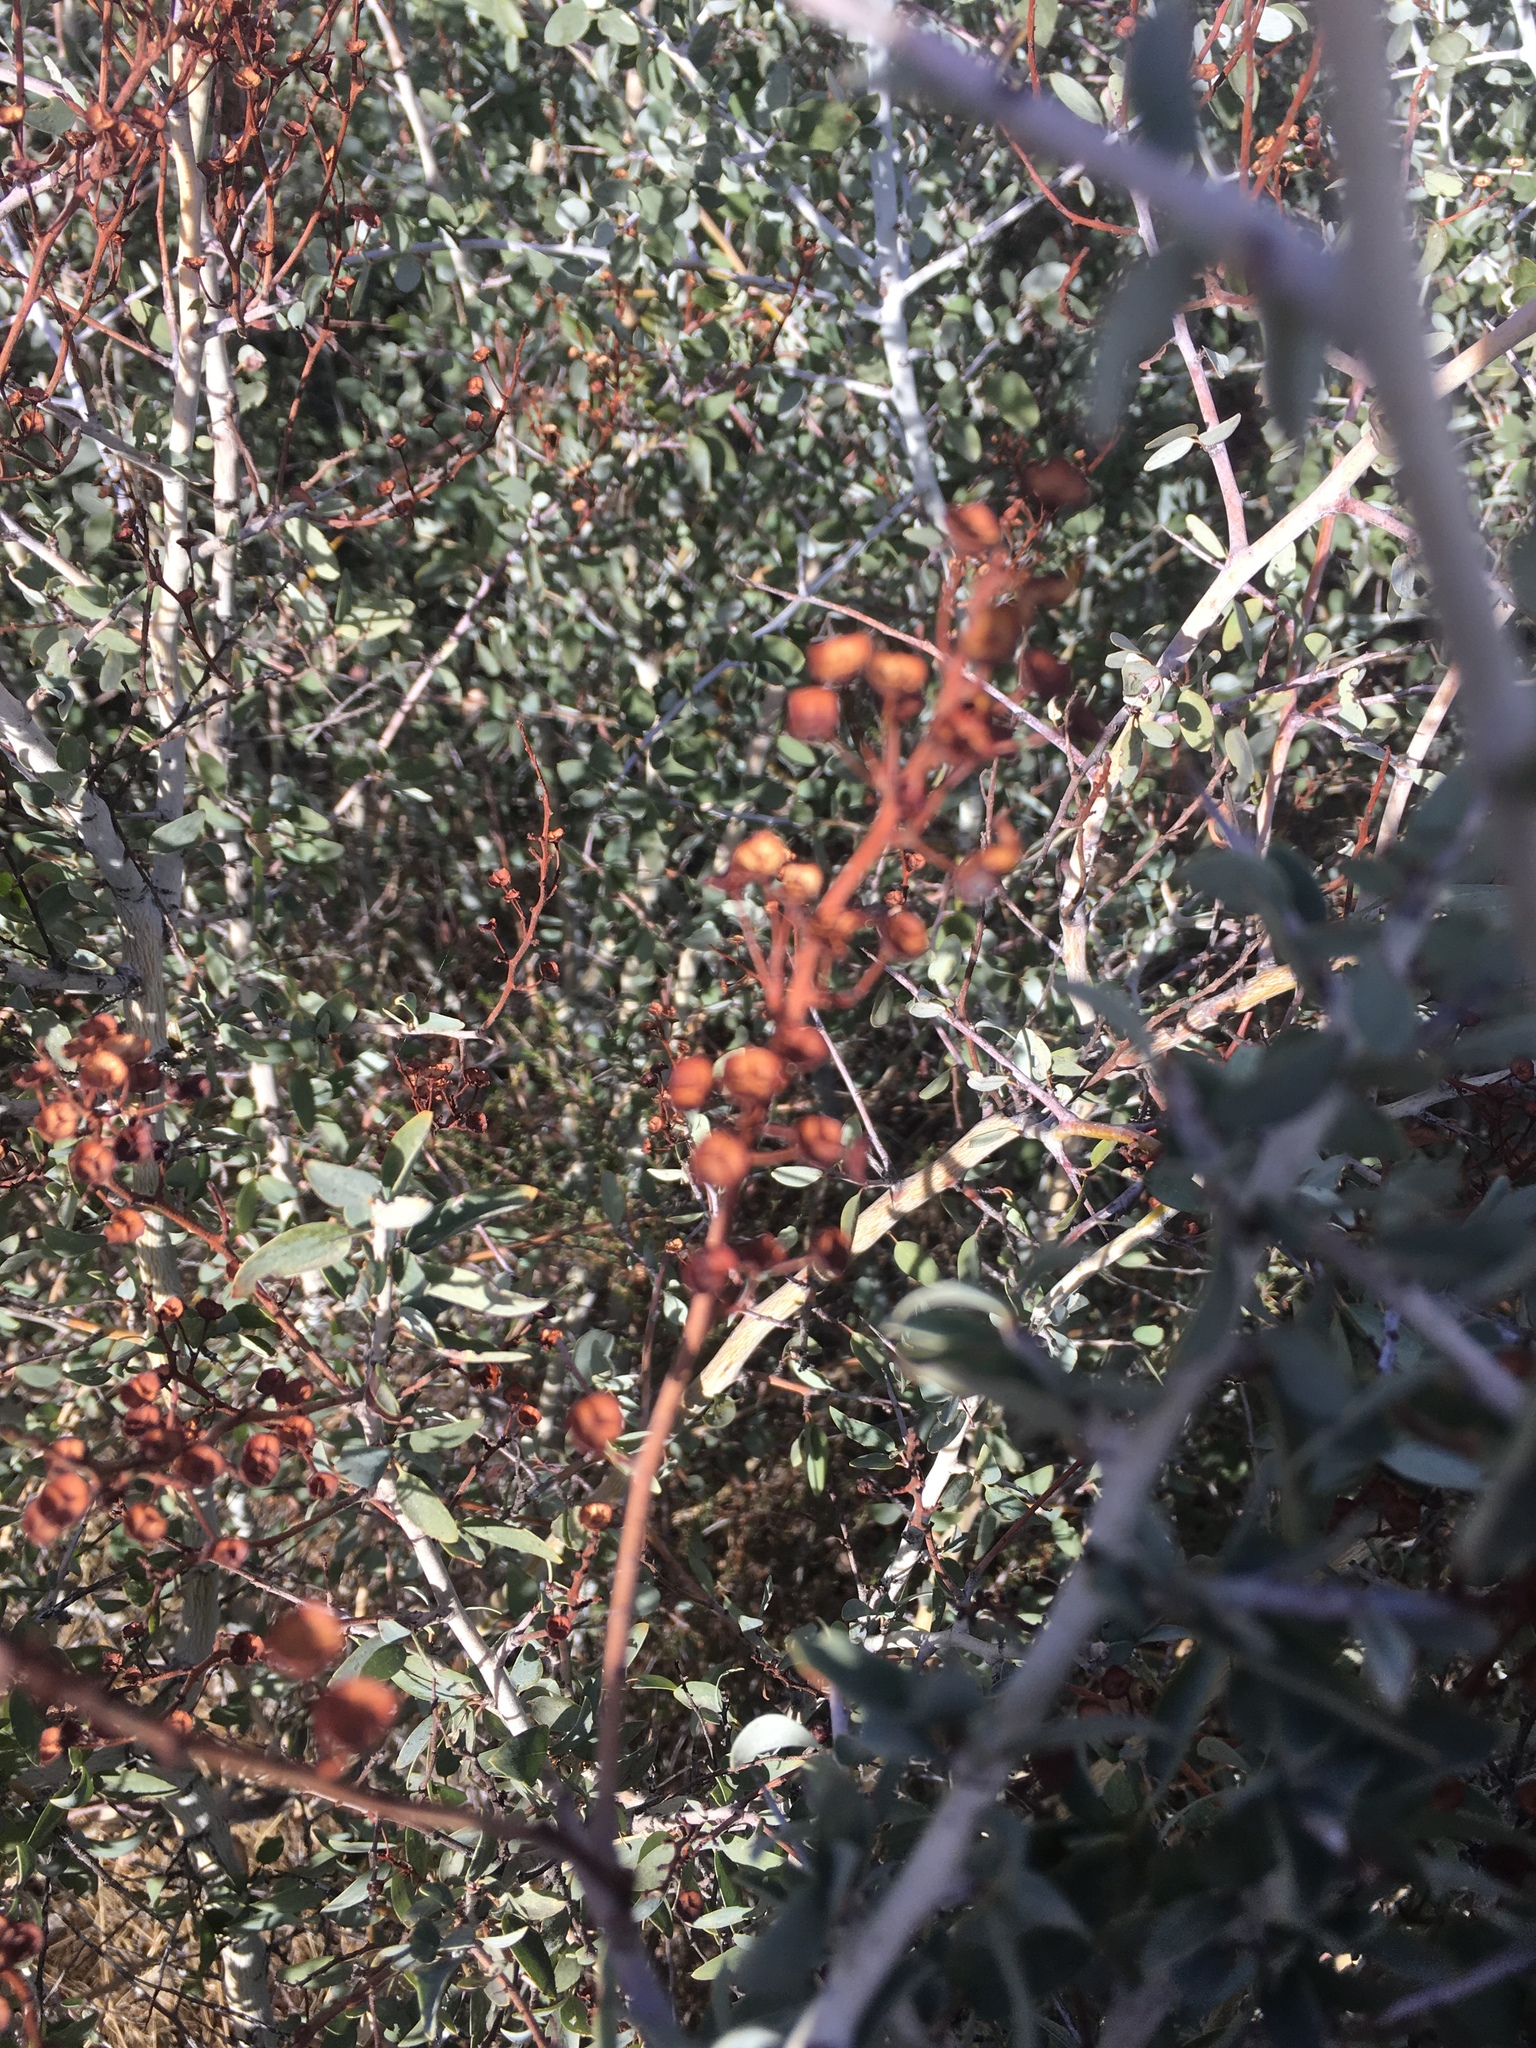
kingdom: Plantae
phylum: Tracheophyta
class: Magnoliopsida
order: Rosales
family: Rhamnaceae
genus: Ceanothus
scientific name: Ceanothus leucodermis
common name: Chaparral whitethorn
